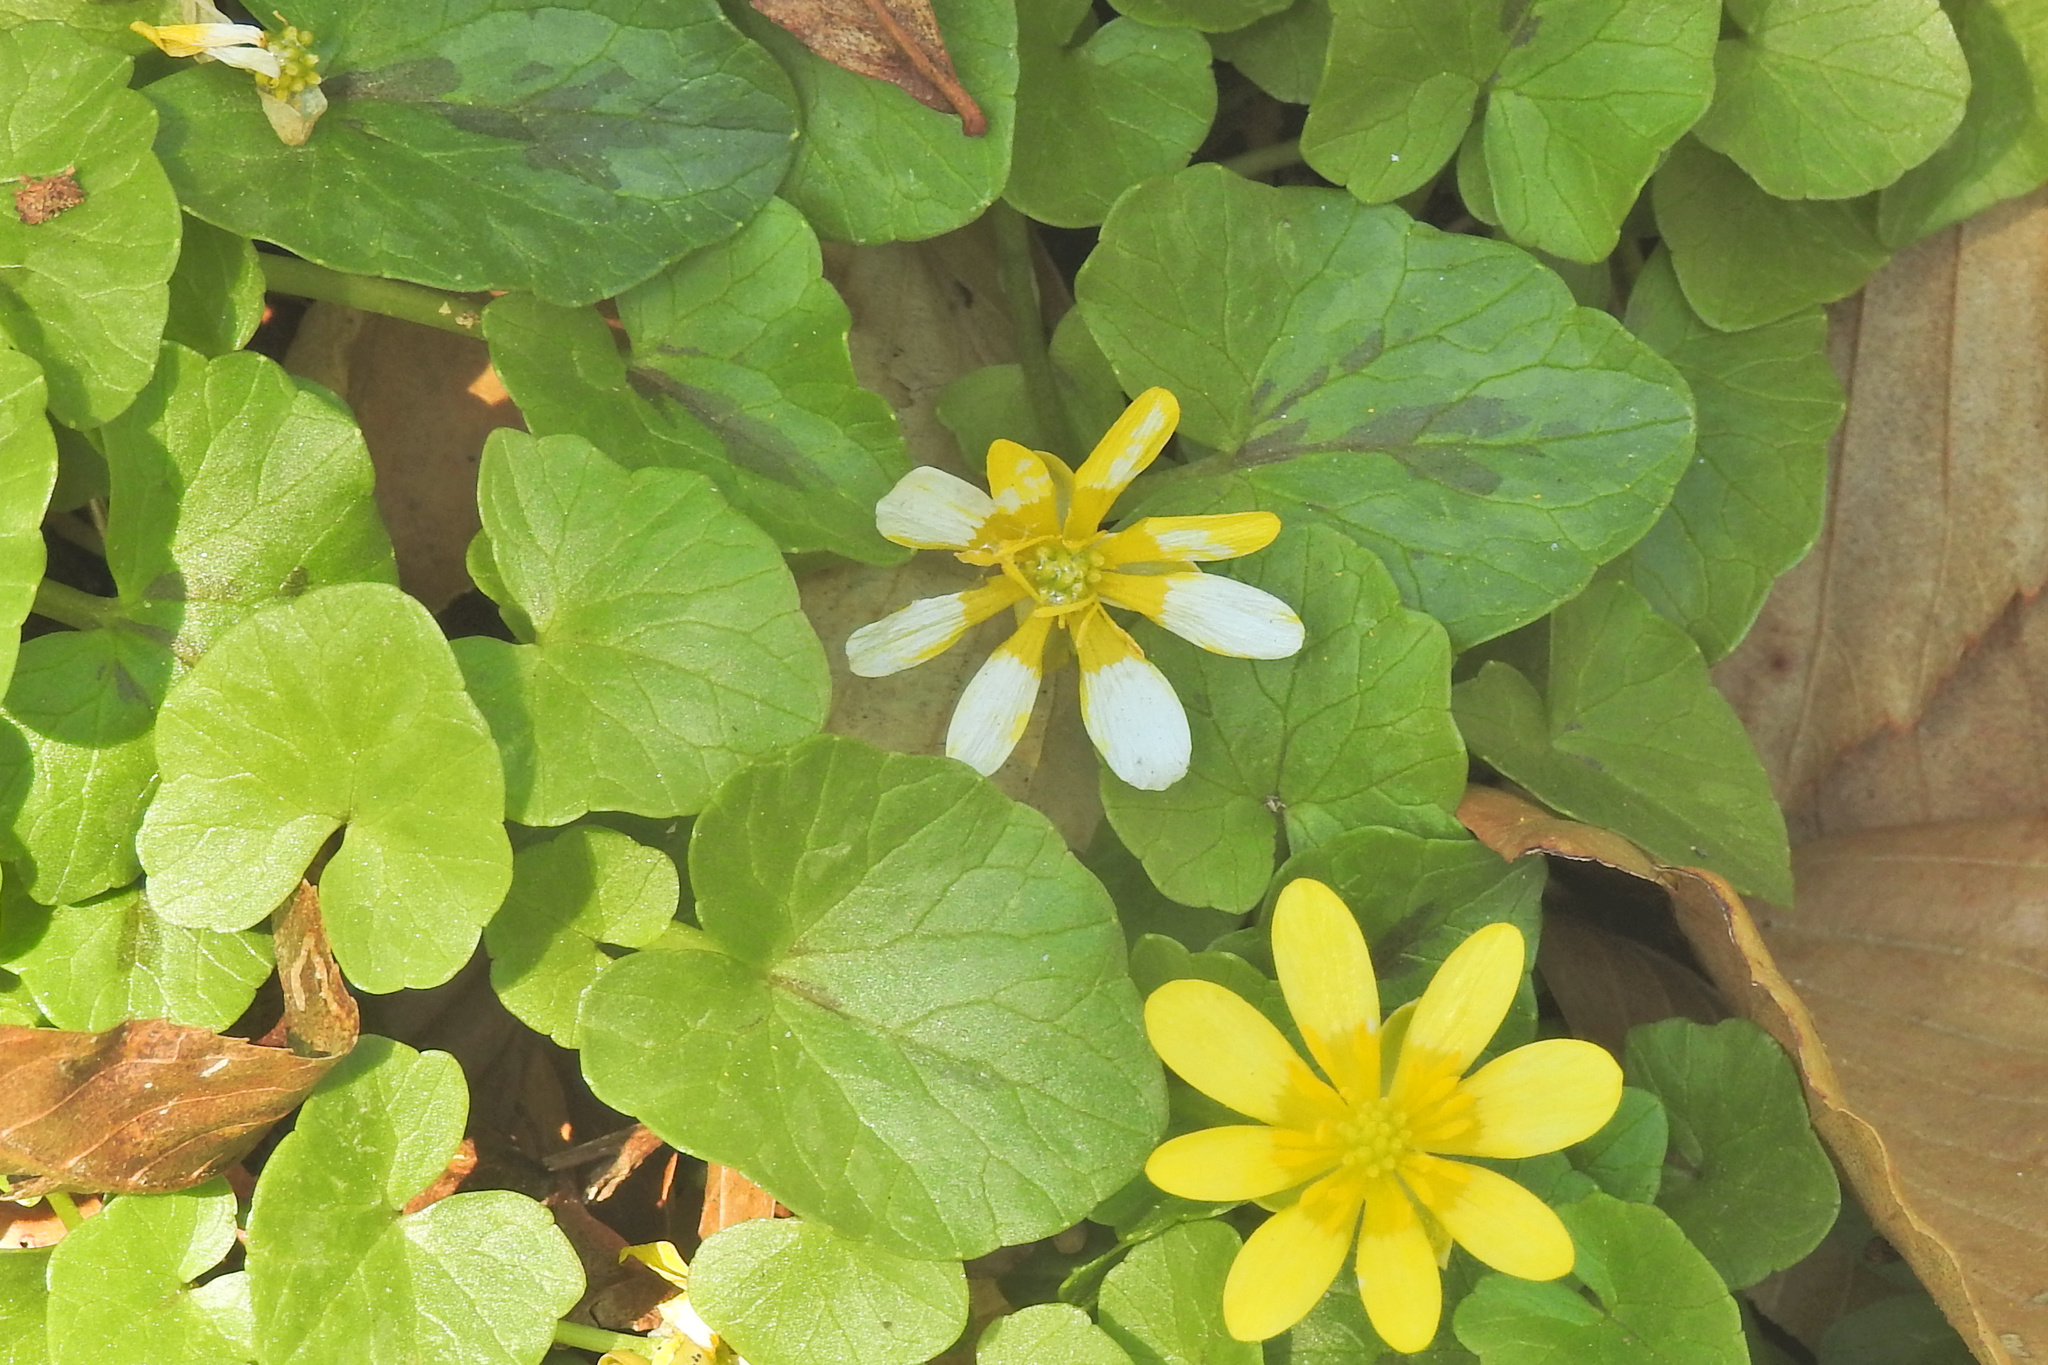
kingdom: Plantae
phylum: Tracheophyta
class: Magnoliopsida
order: Ranunculales
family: Ranunculaceae
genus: Ficaria
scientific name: Ficaria verna
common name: Lesser celandine
